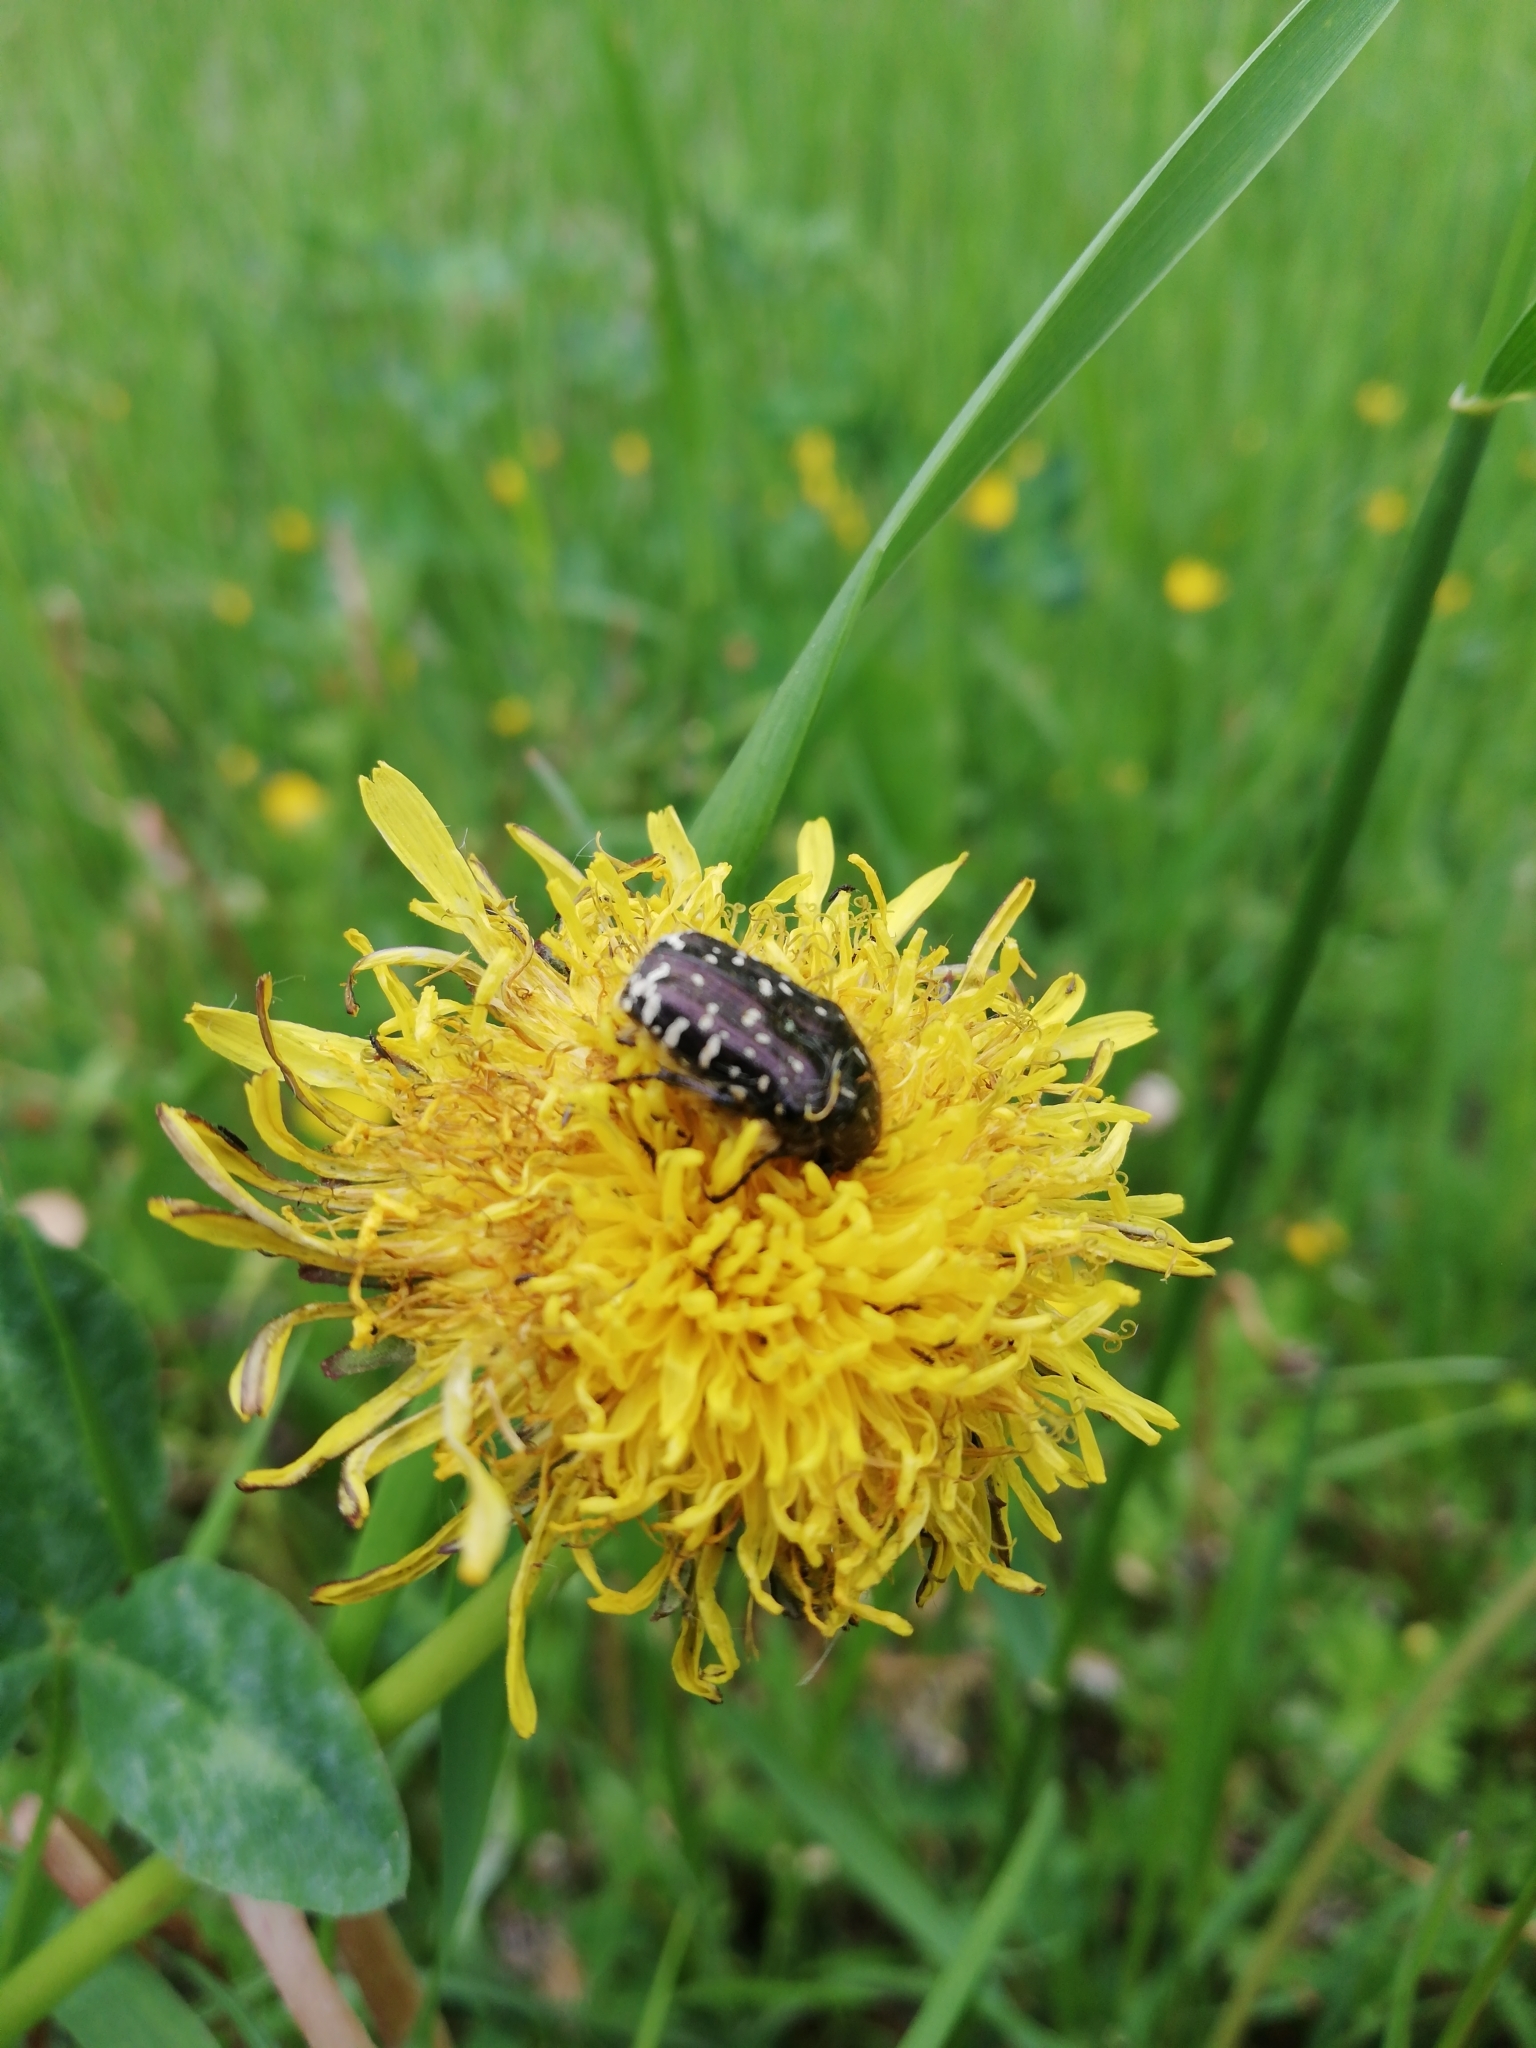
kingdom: Animalia
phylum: Arthropoda
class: Insecta
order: Coleoptera
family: Scarabaeidae
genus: Oxythyrea
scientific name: Oxythyrea funesta
